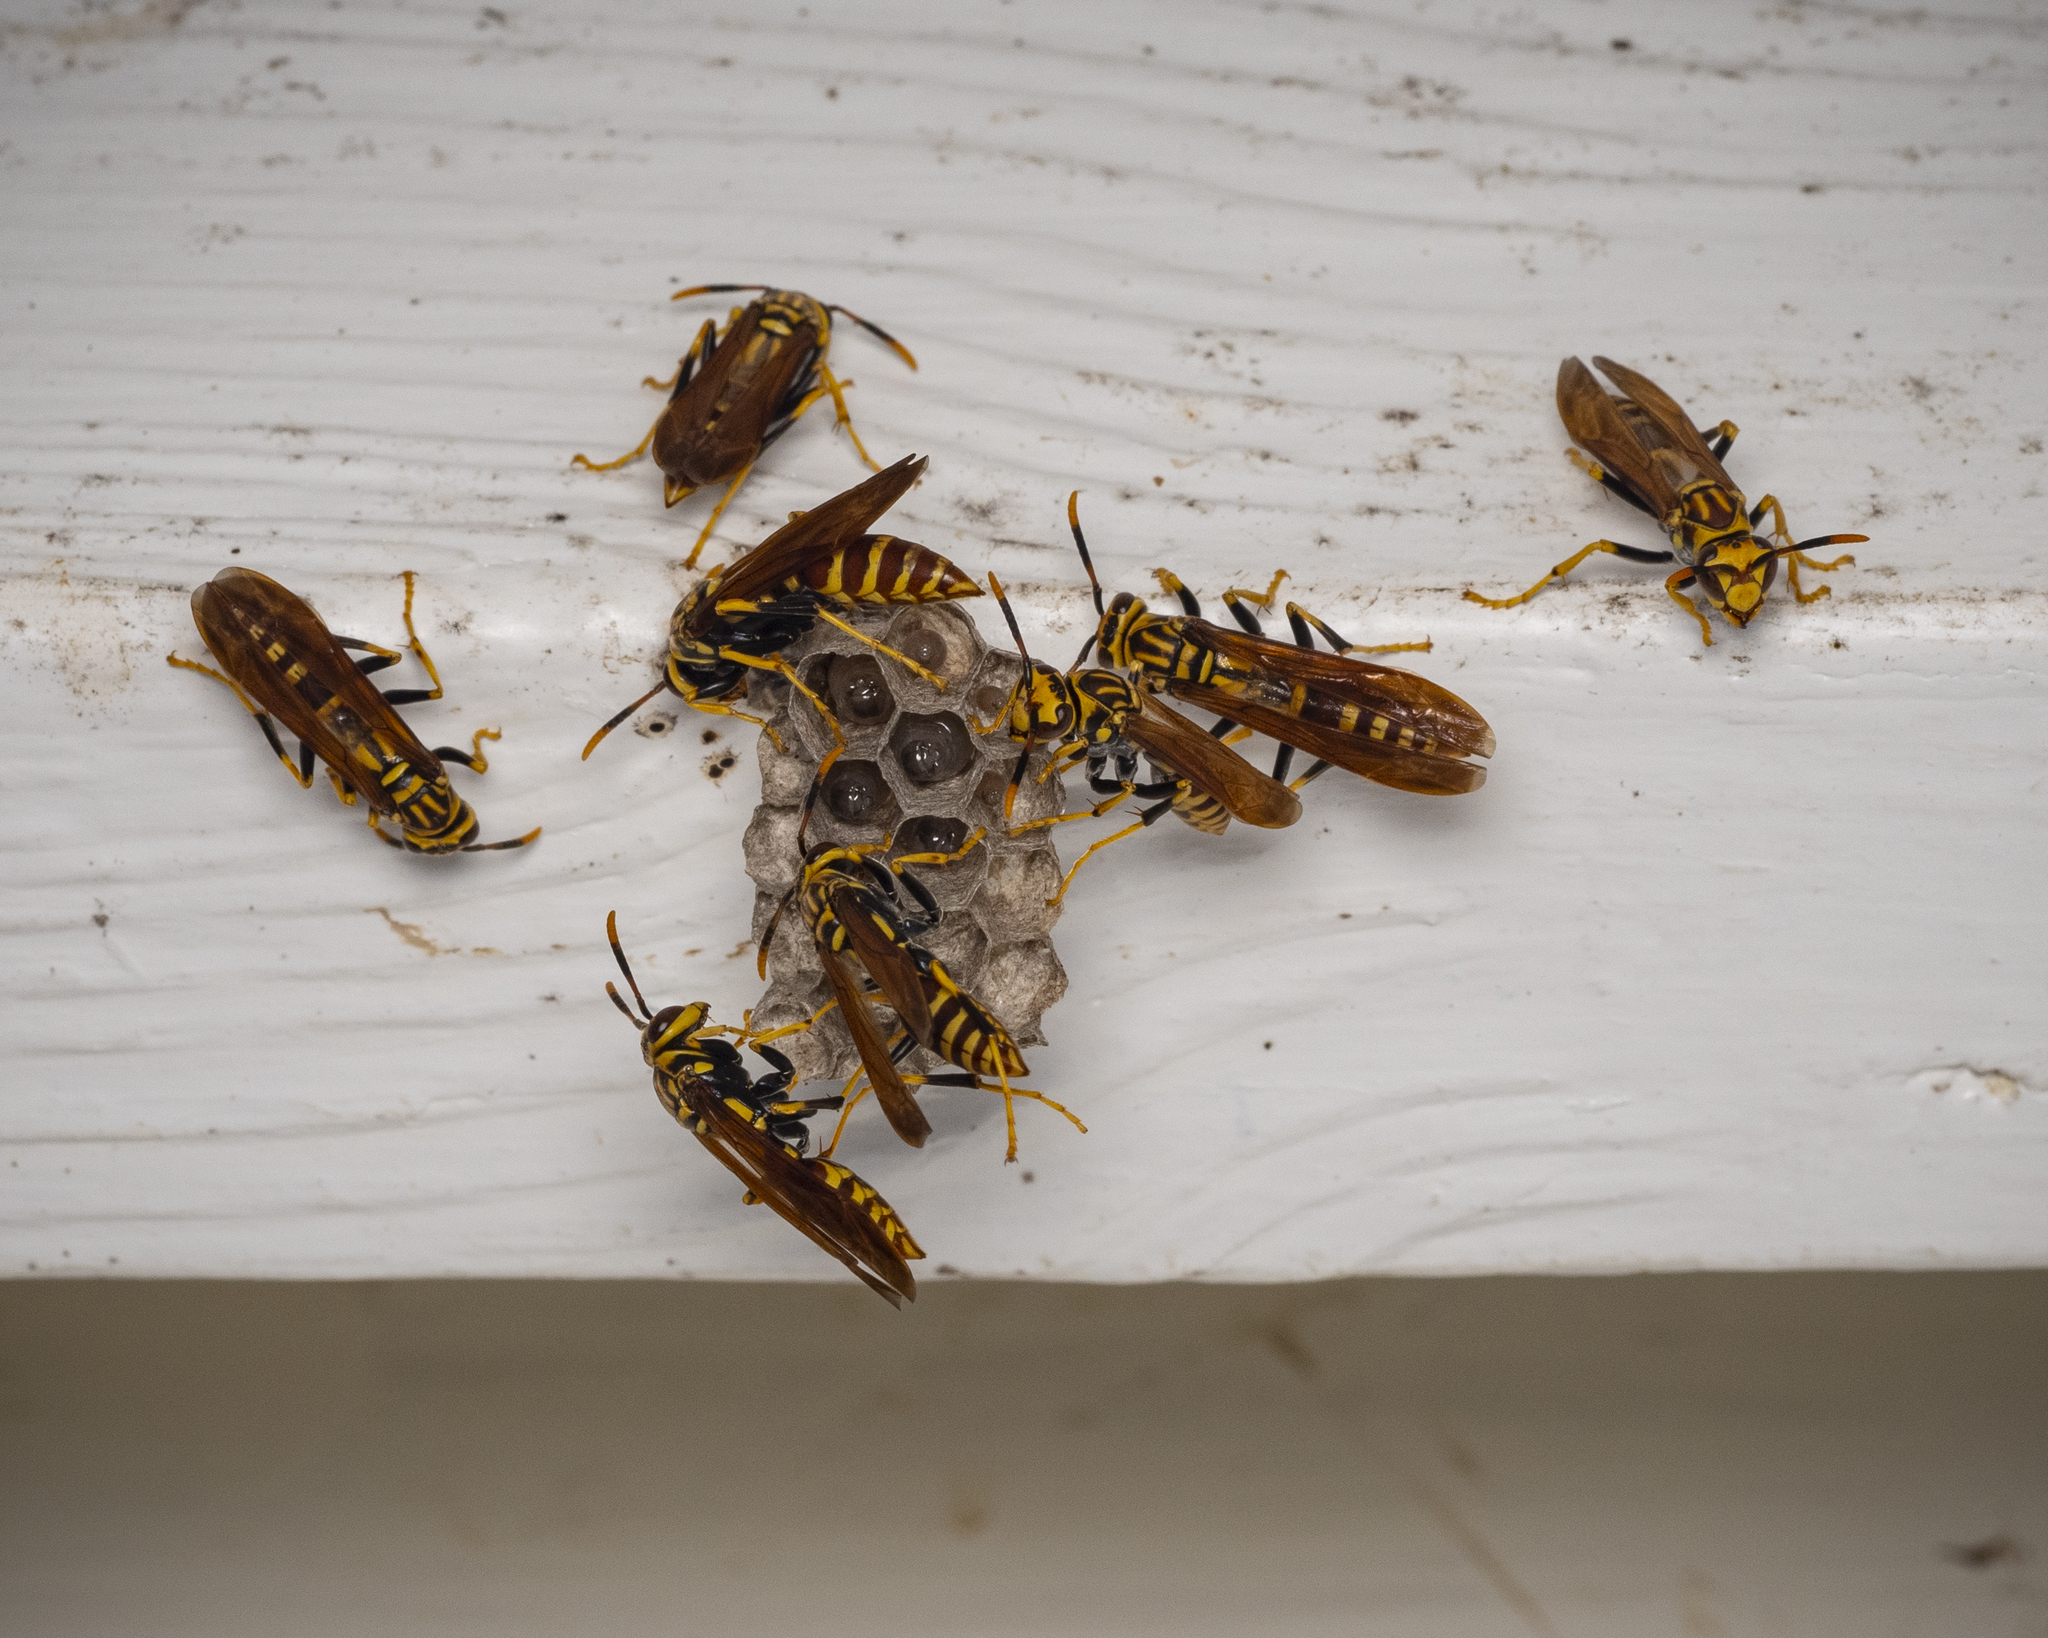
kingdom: Animalia
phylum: Arthropoda
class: Insecta
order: Hymenoptera
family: Eumenidae
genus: Polistes
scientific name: Polistes bequaertellus
